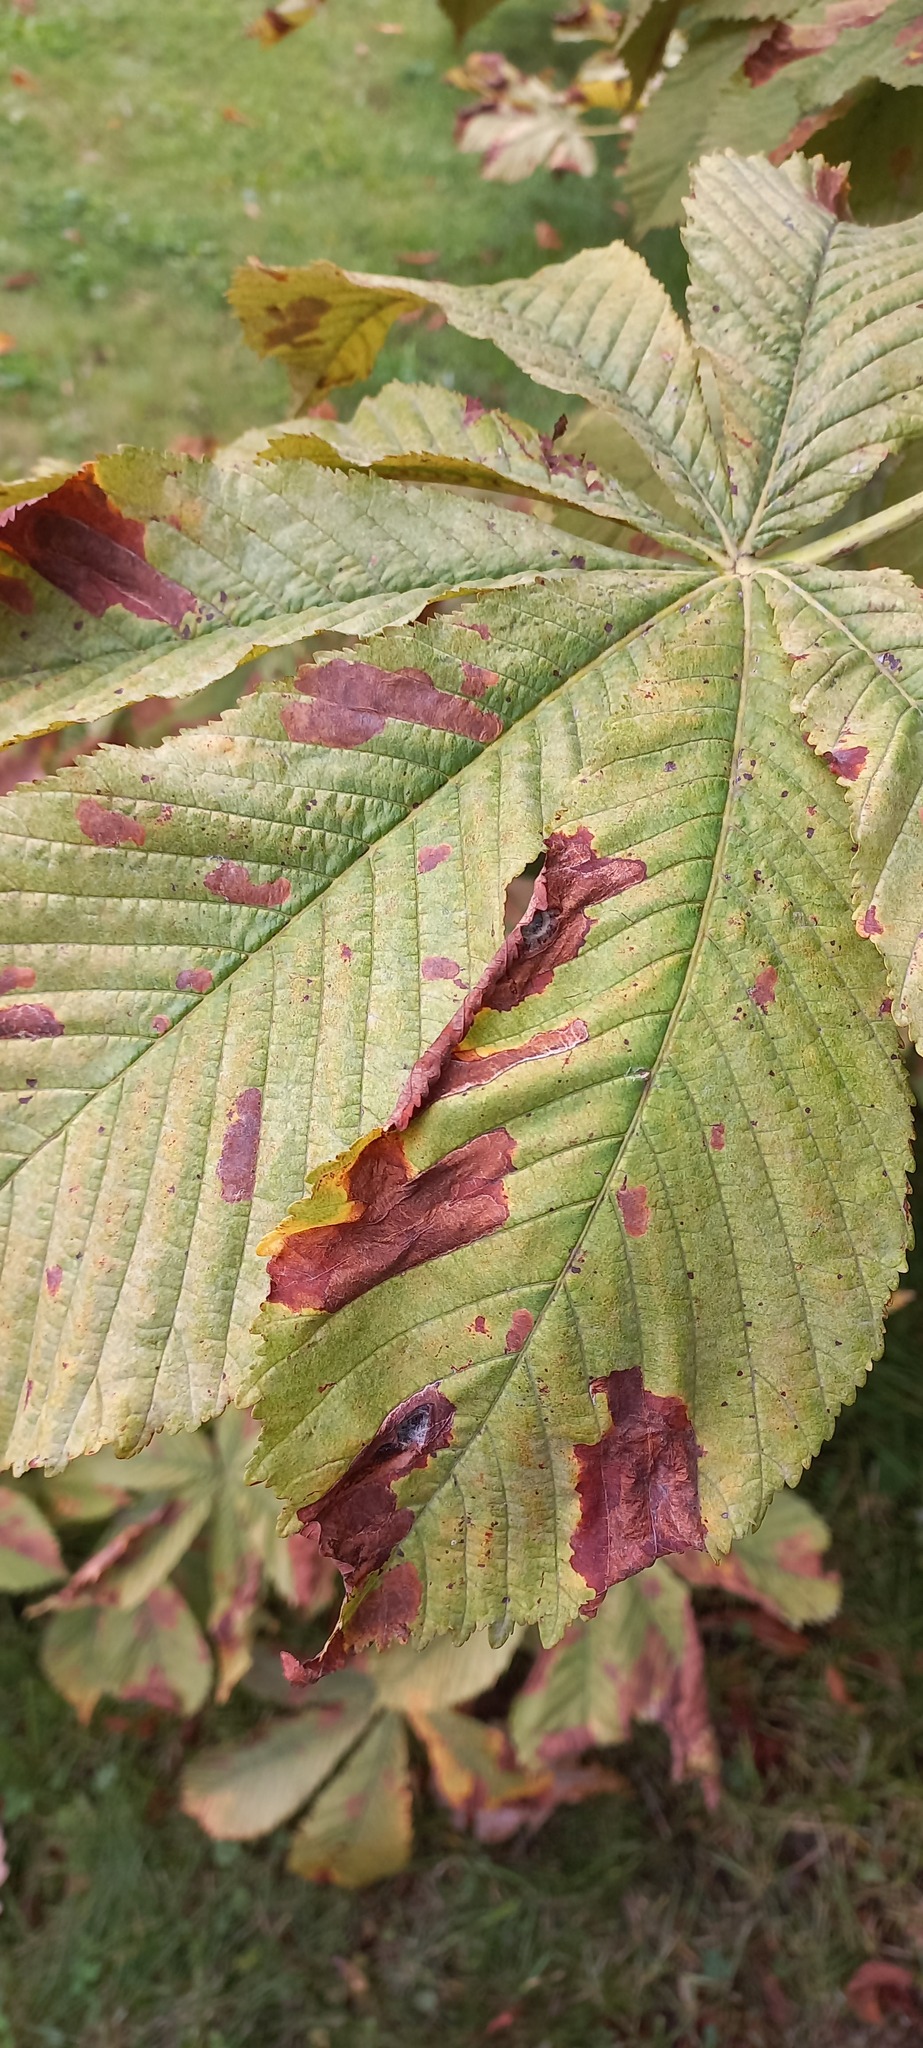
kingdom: Animalia
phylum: Arthropoda
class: Insecta
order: Lepidoptera
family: Gracillariidae
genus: Cameraria
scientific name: Cameraria ohridella
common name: Horse-chestnut leaf-miner
